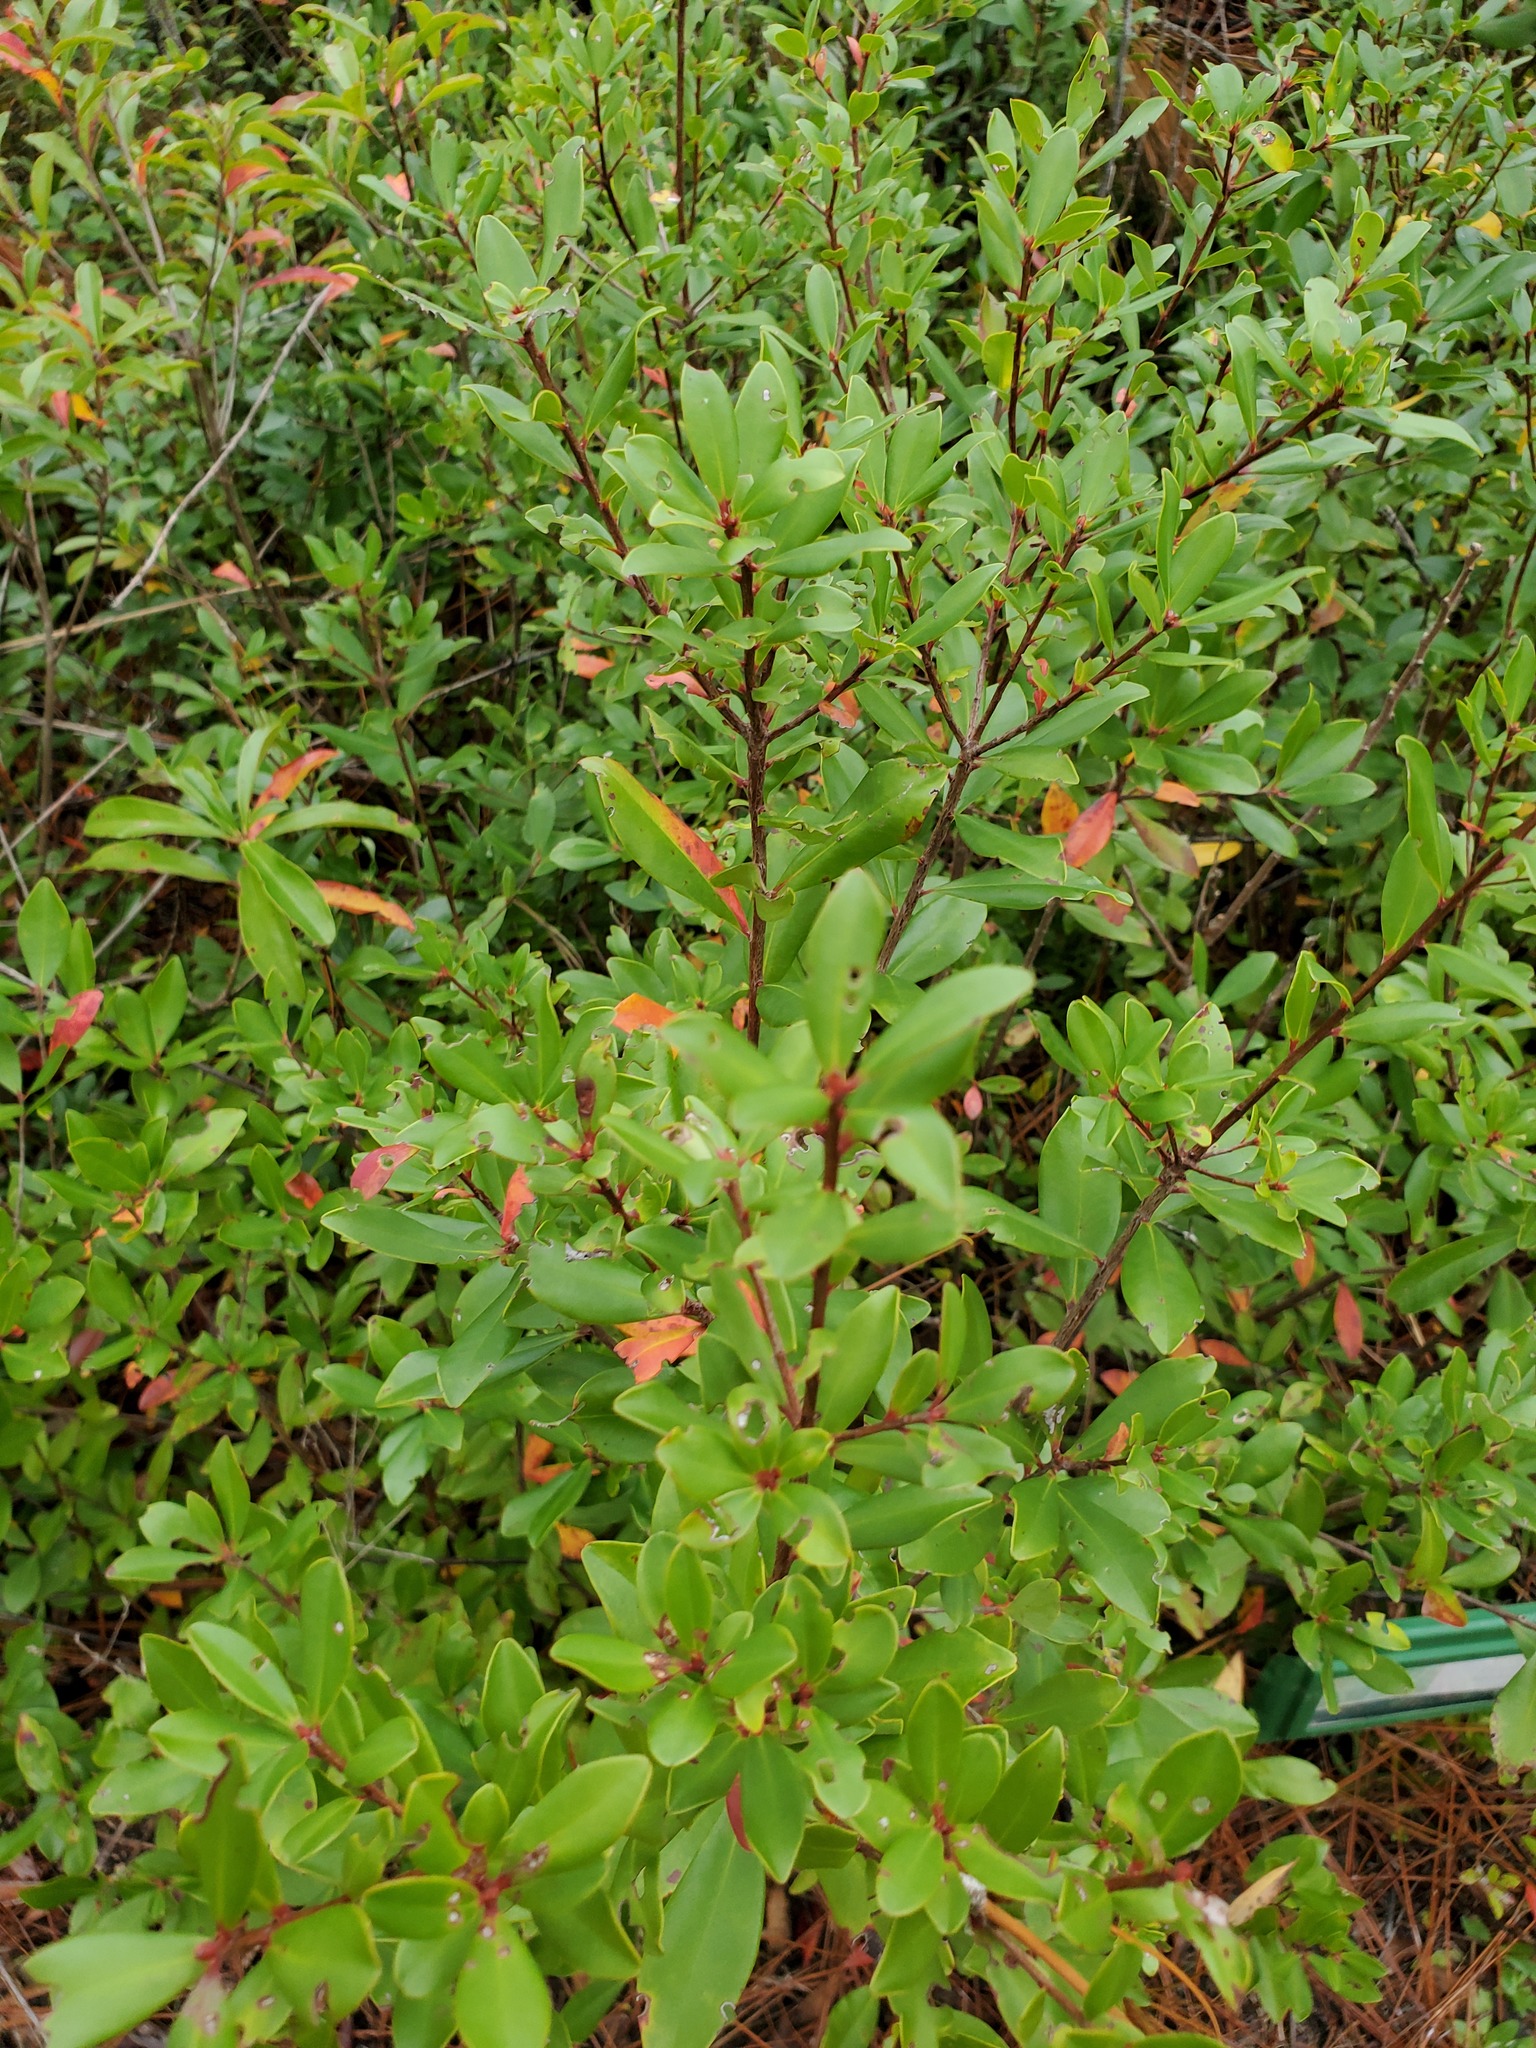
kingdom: Plantae
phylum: Tracheophyta
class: Magnoliopsida
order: Ericales
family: Cyrillaceae
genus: Cliftonia
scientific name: Cliftonia monophylla
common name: Titi
